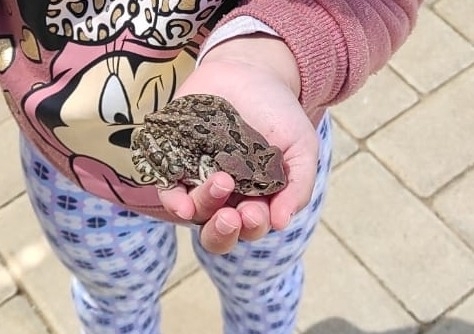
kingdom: Animalia
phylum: Chordata
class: Amphibia
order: Anura
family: Bufonidae
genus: Sclerophrys
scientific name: Sclerophrys capensis
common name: Ranger’s toad
